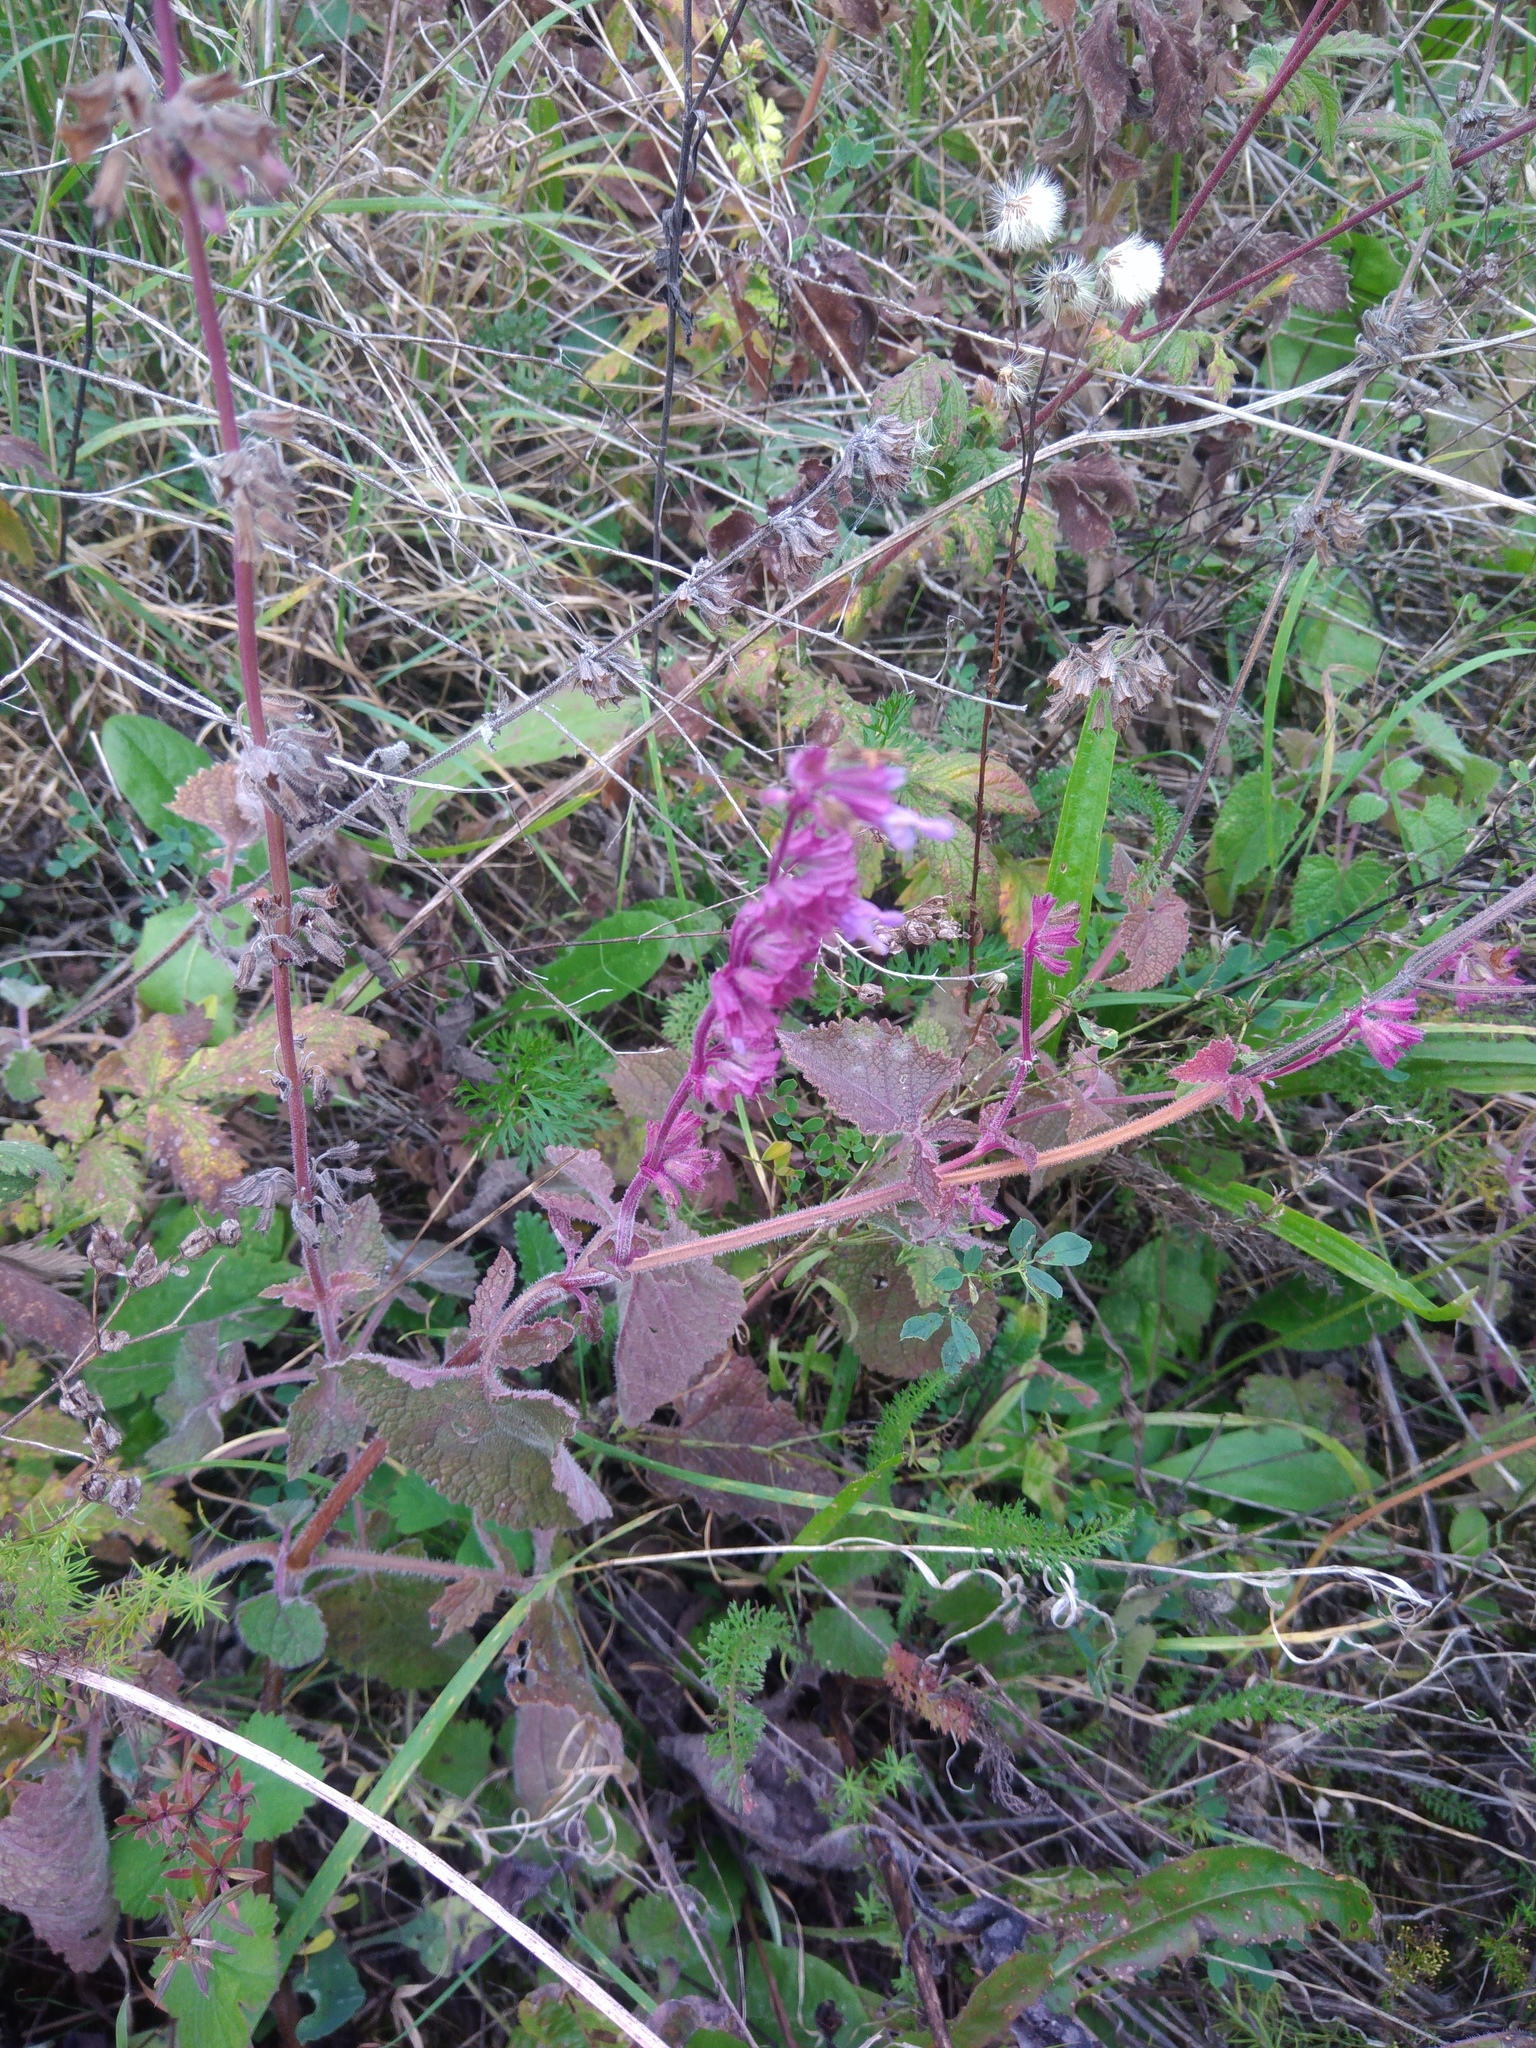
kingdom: Plantae
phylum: Tracheophyta
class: Magnoliopsida
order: Lamiales
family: Lamiaceae
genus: Salvia
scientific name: Salvia verticillata
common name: Whorled clary
